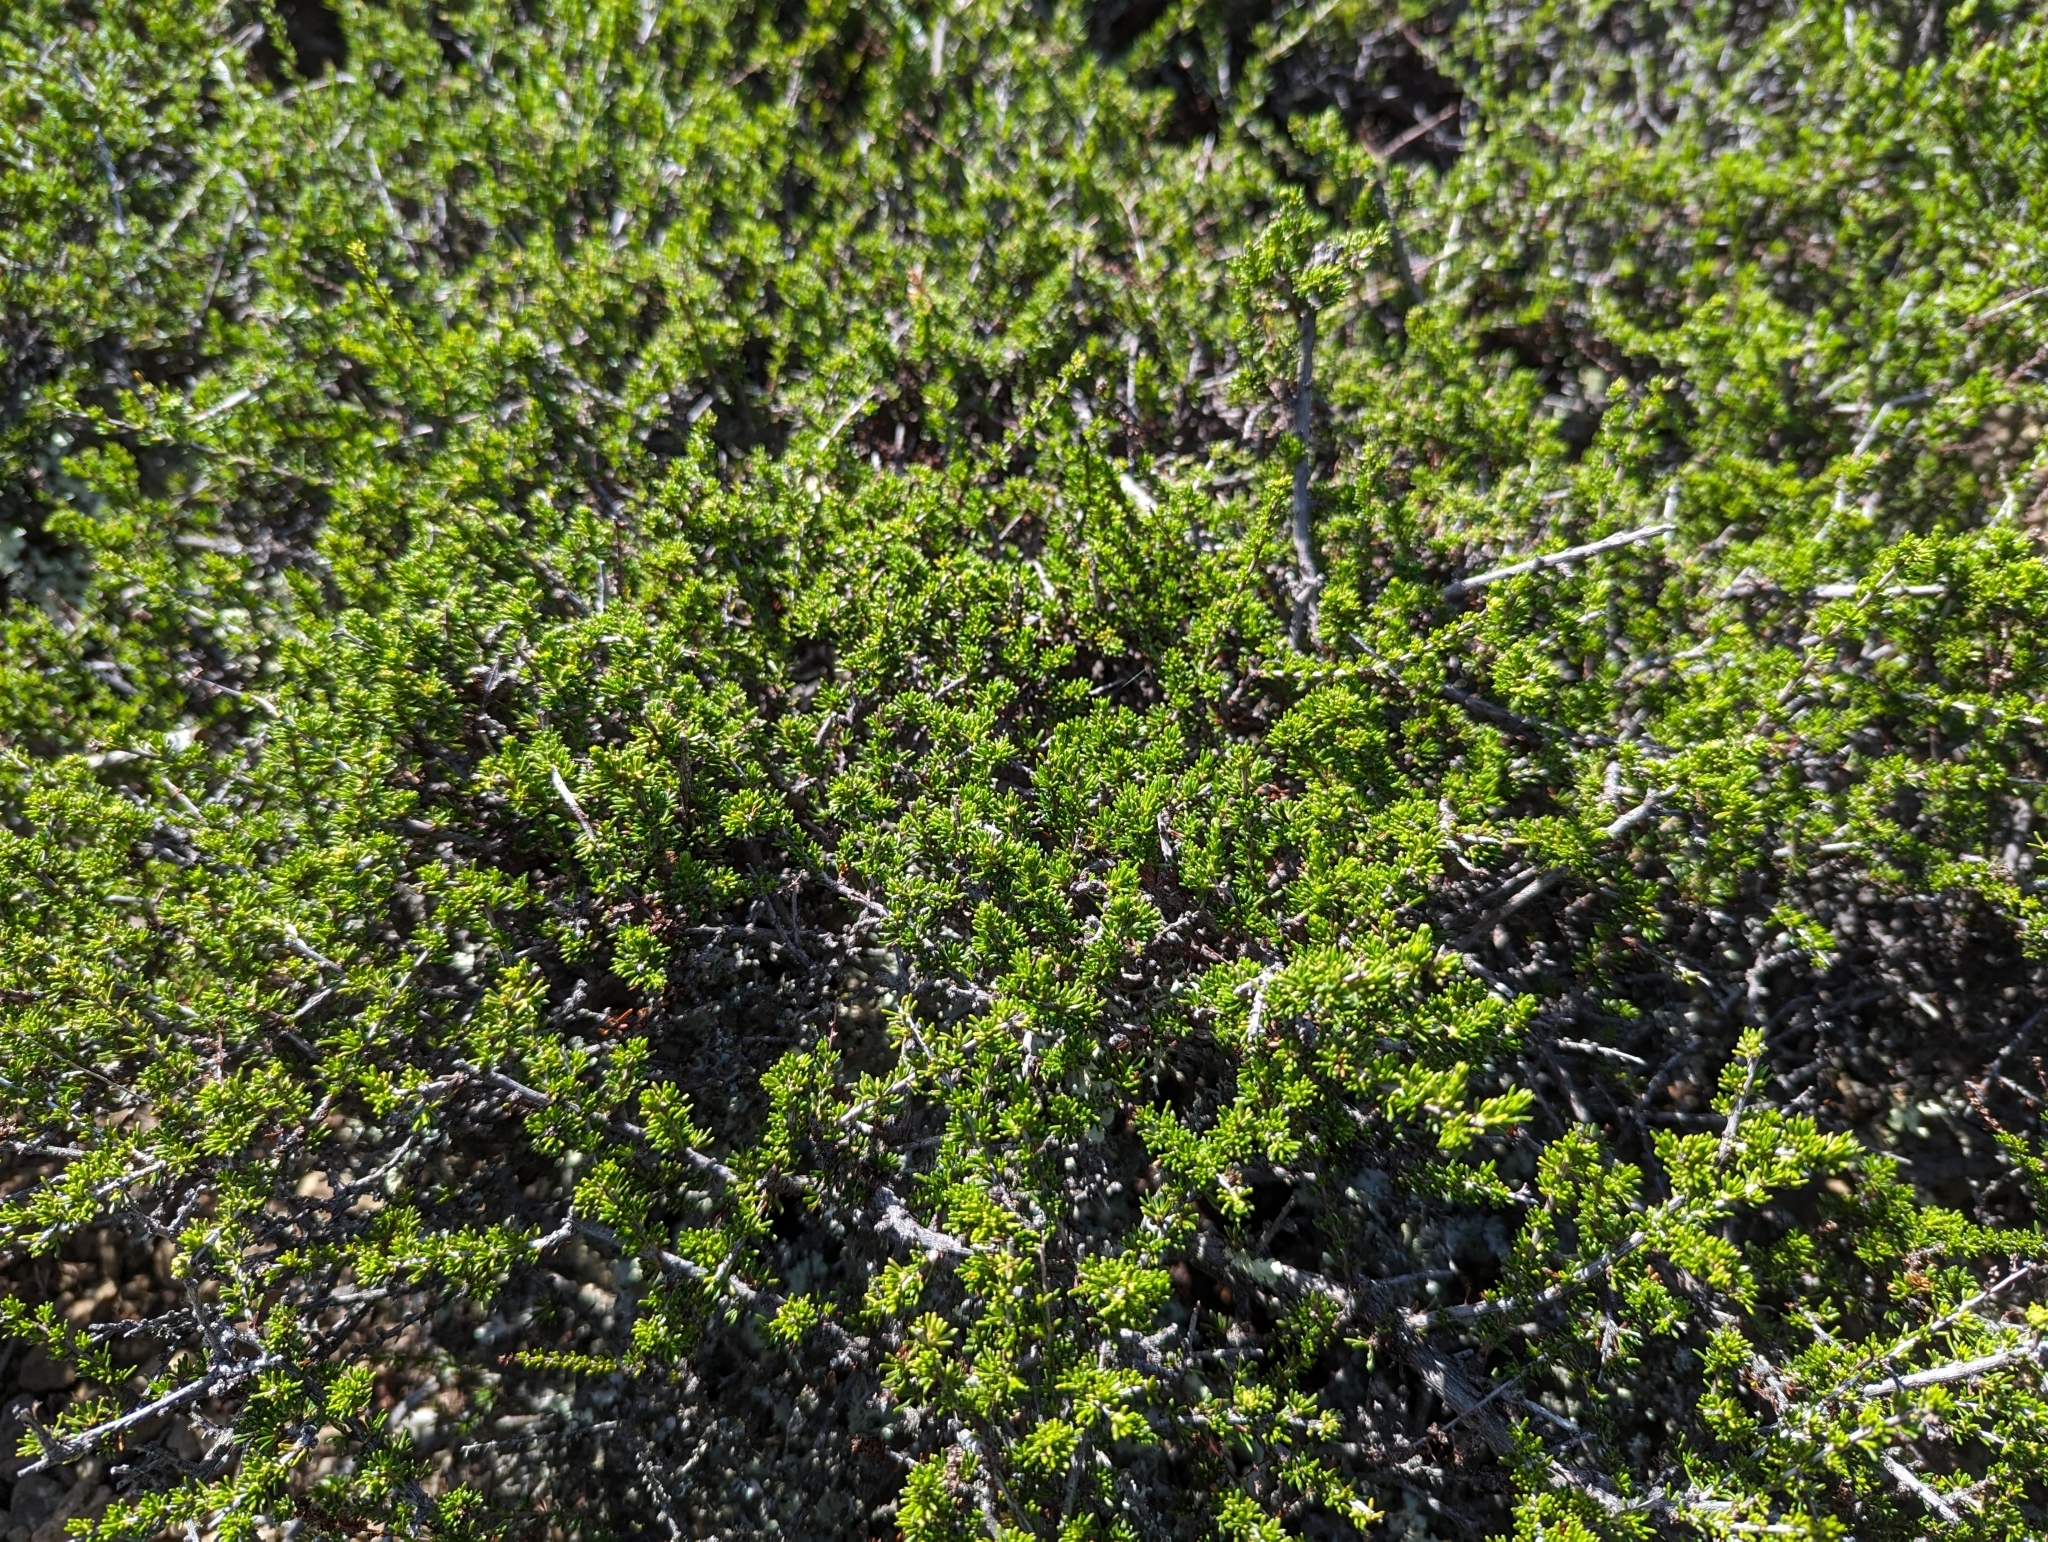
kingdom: Plantae
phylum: Tracheophyta
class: Magnoliopsida
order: Rosales
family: Rosaceae
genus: Adenostoma
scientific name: Adenostoma fasciculatum
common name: Chamise
